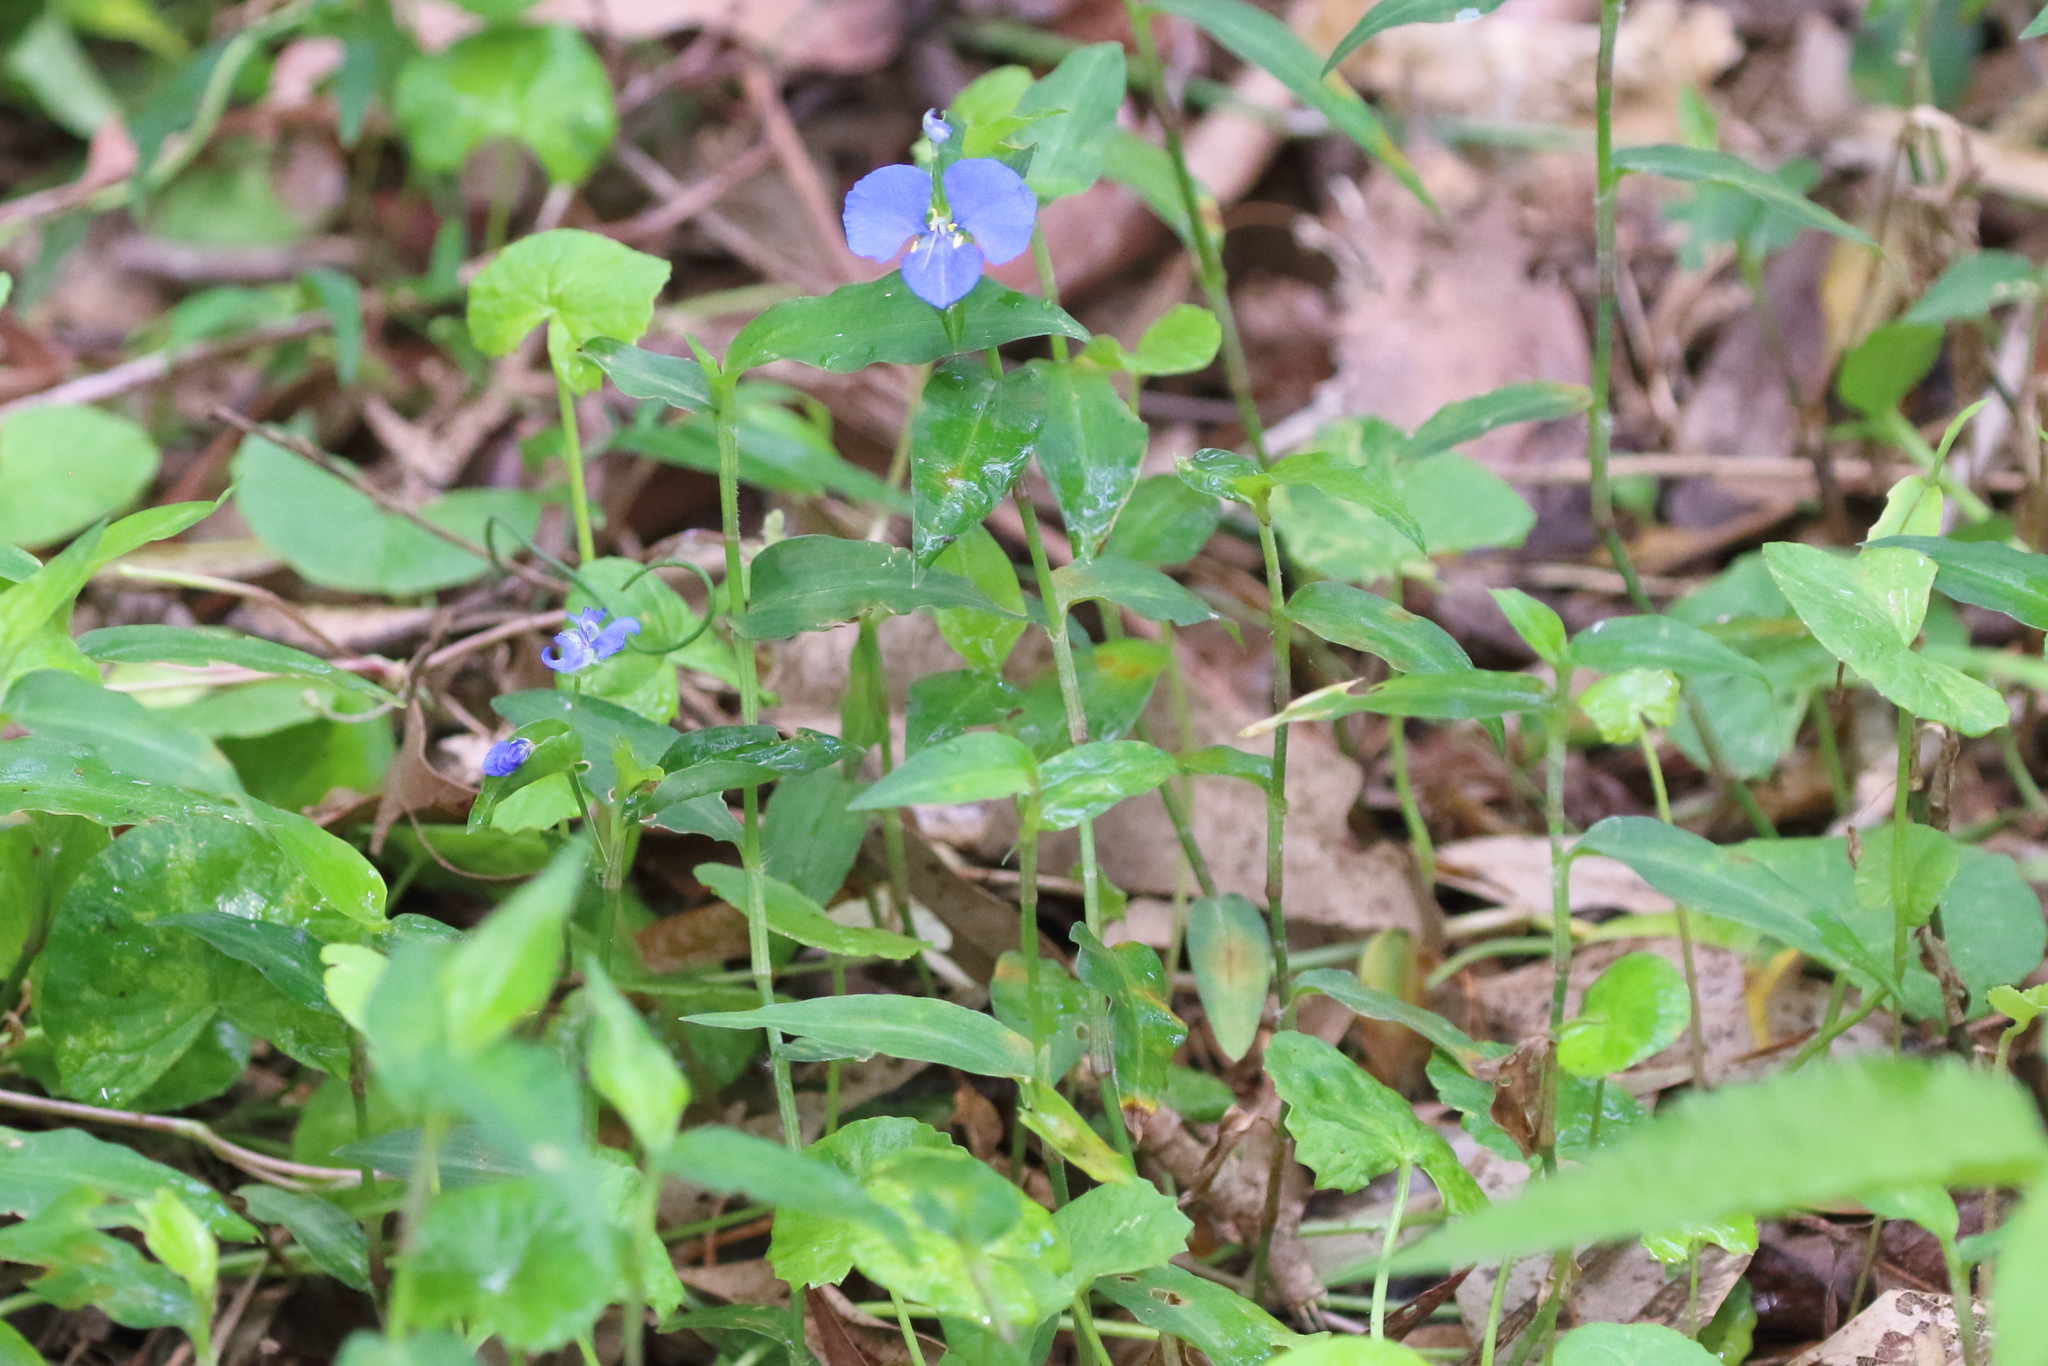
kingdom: Plantae
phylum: Tracheophyta
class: Liliopsida
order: Commelinales
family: Commelinaceae
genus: Commelina
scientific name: Commelina cyanea
